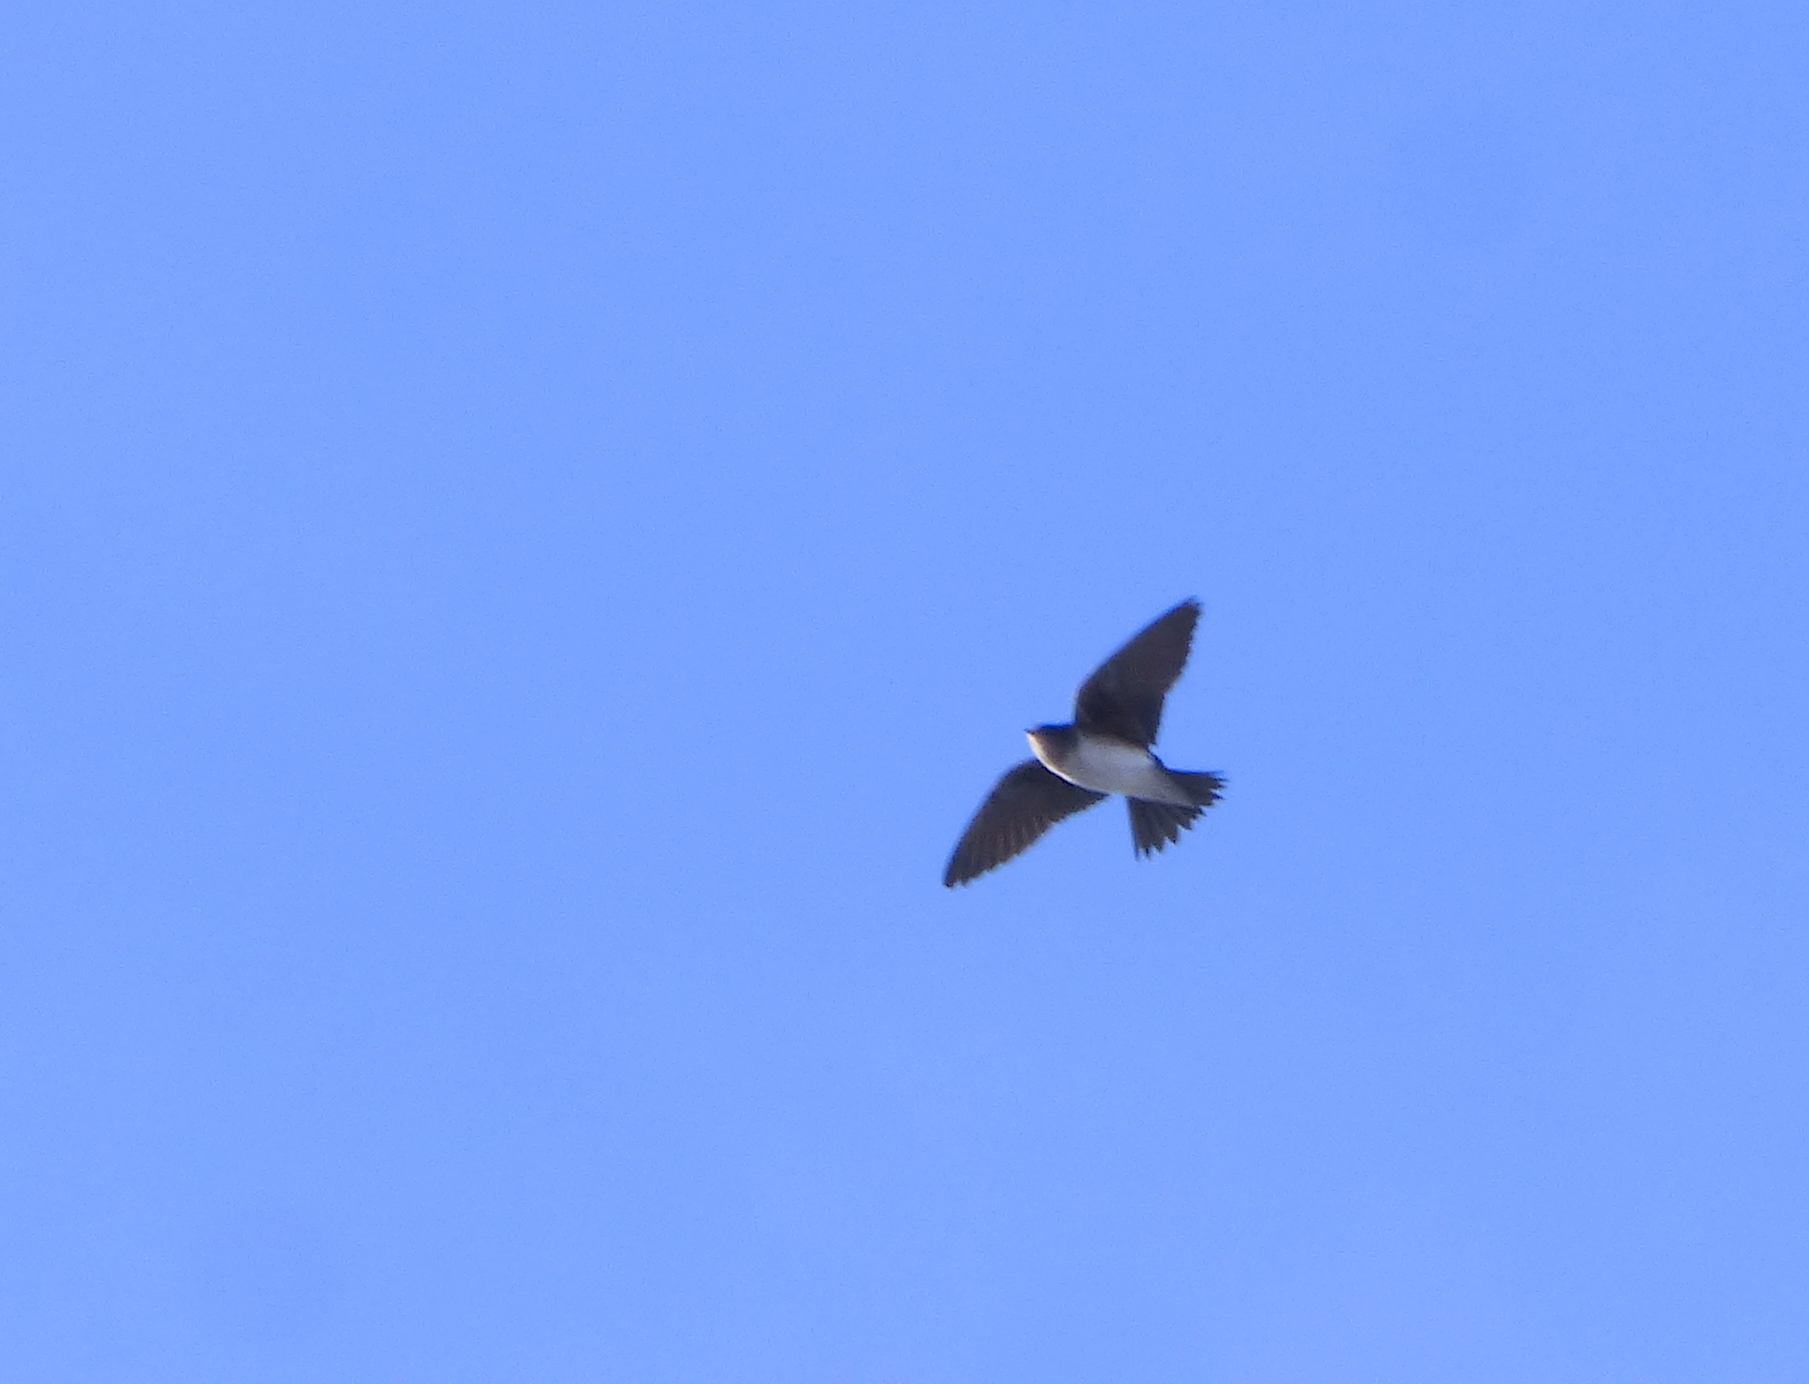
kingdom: Animalia
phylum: Chordata
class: Aves
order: Passeriformes
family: Hirundinidae
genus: Progne
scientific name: Progne chalybea
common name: Grey-breasted martin
